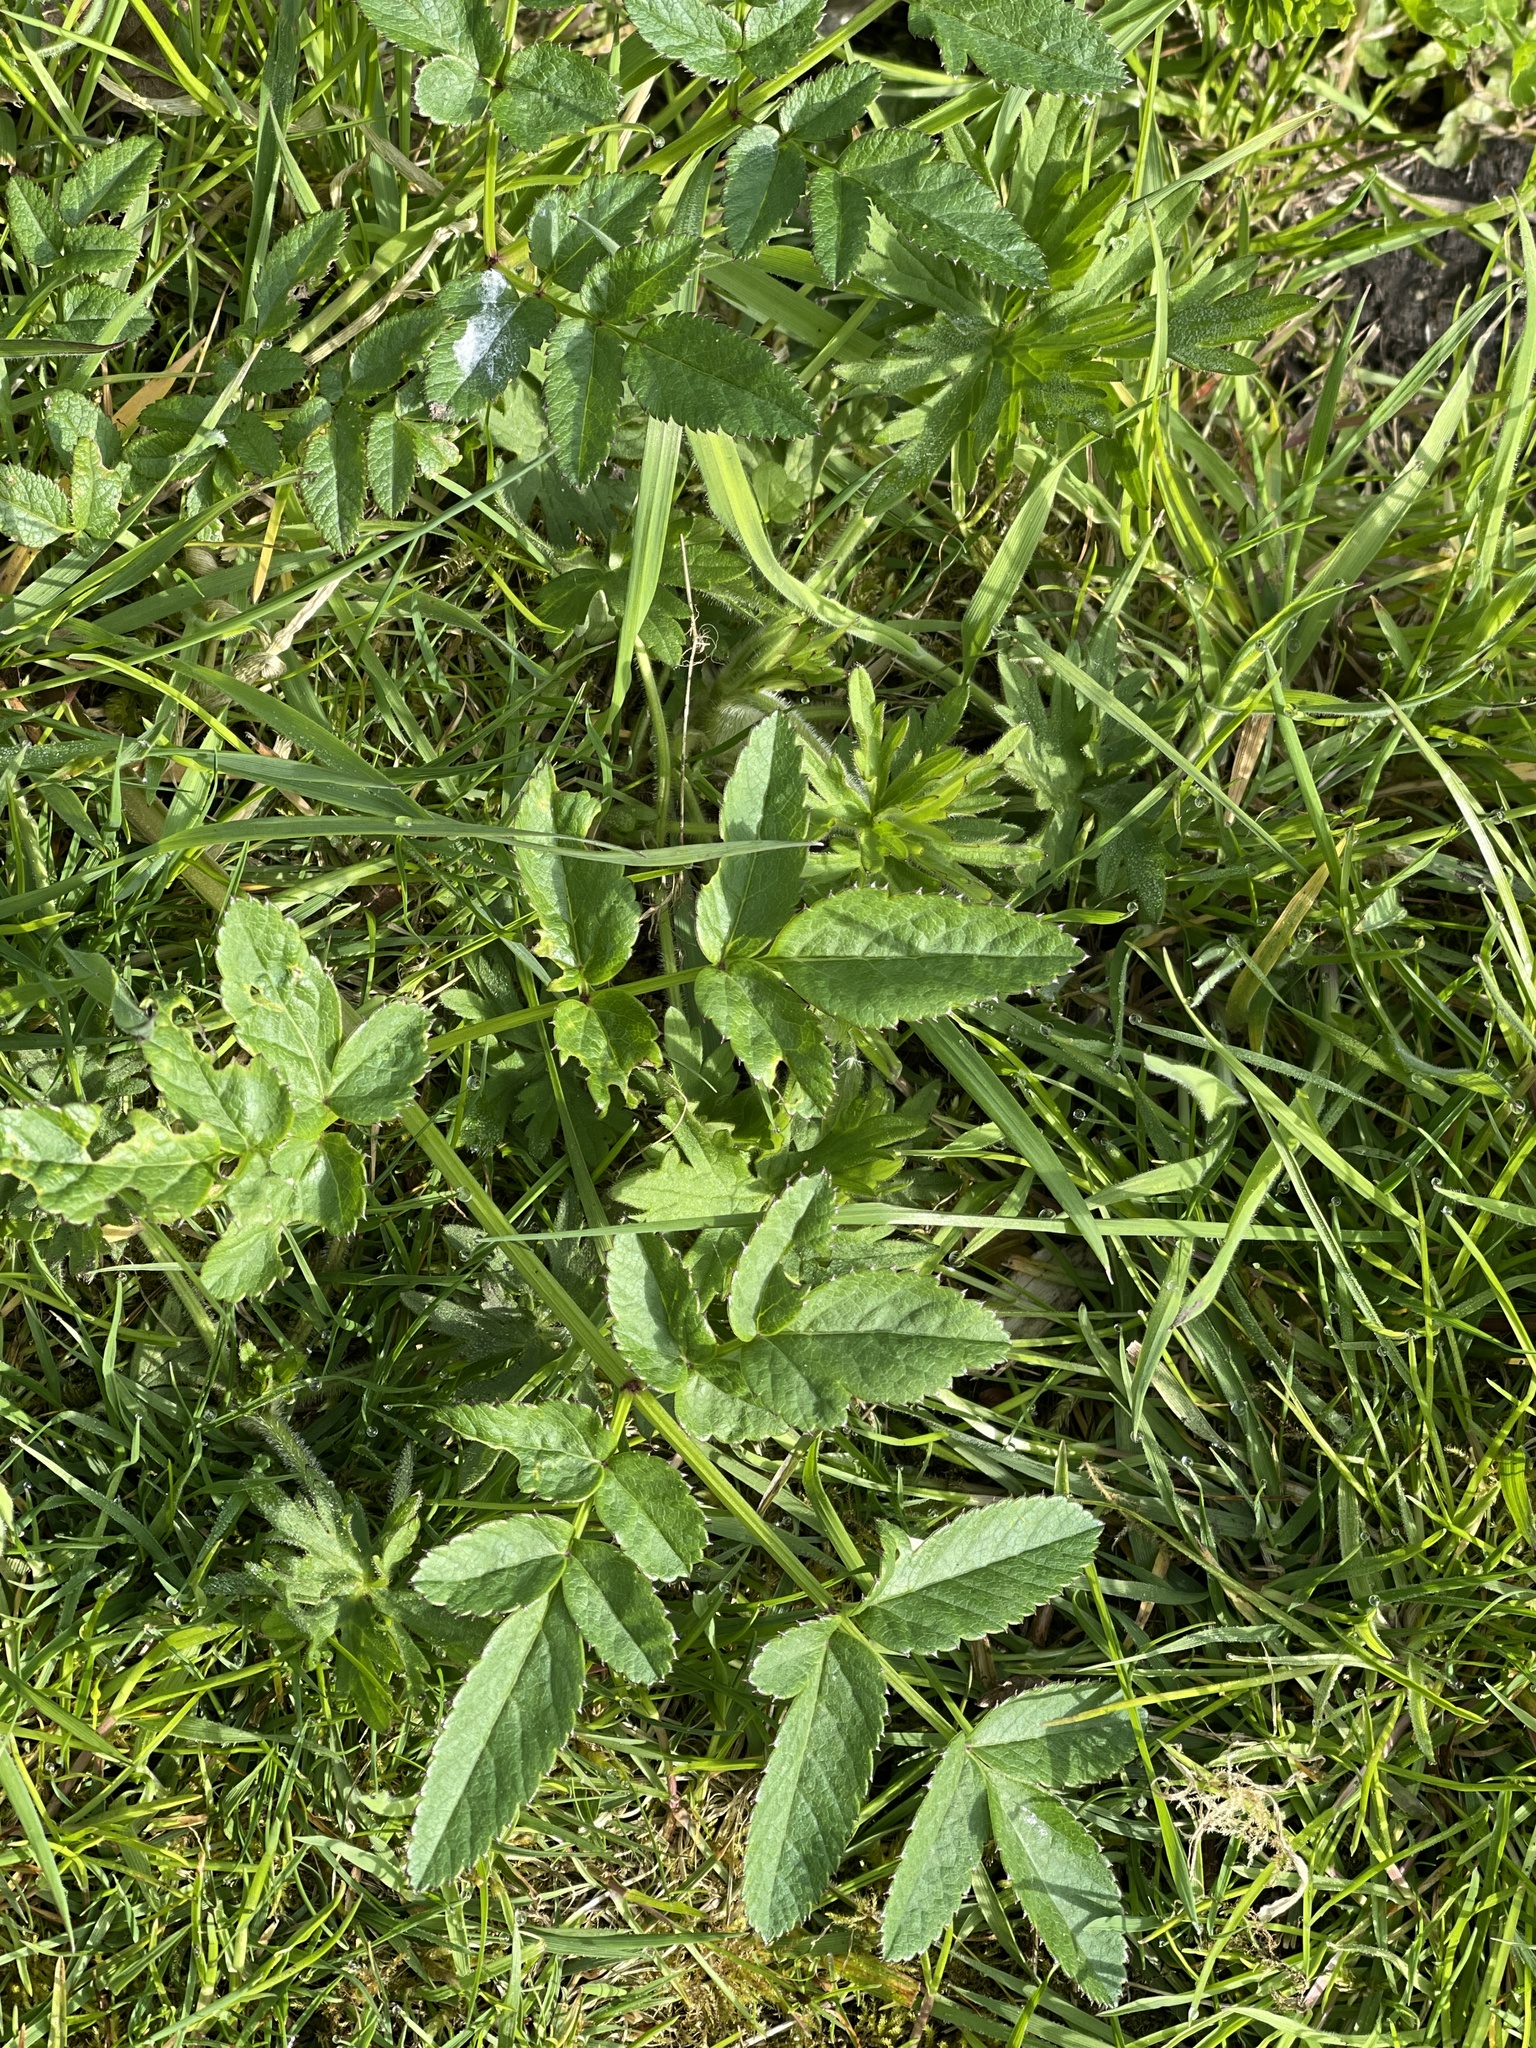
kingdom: Plantae
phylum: Tracheophyta
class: Magnoliopsida
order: Apiales
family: Apiaceae
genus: Angelica
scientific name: Angelica sylvestris
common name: Wild angelica
